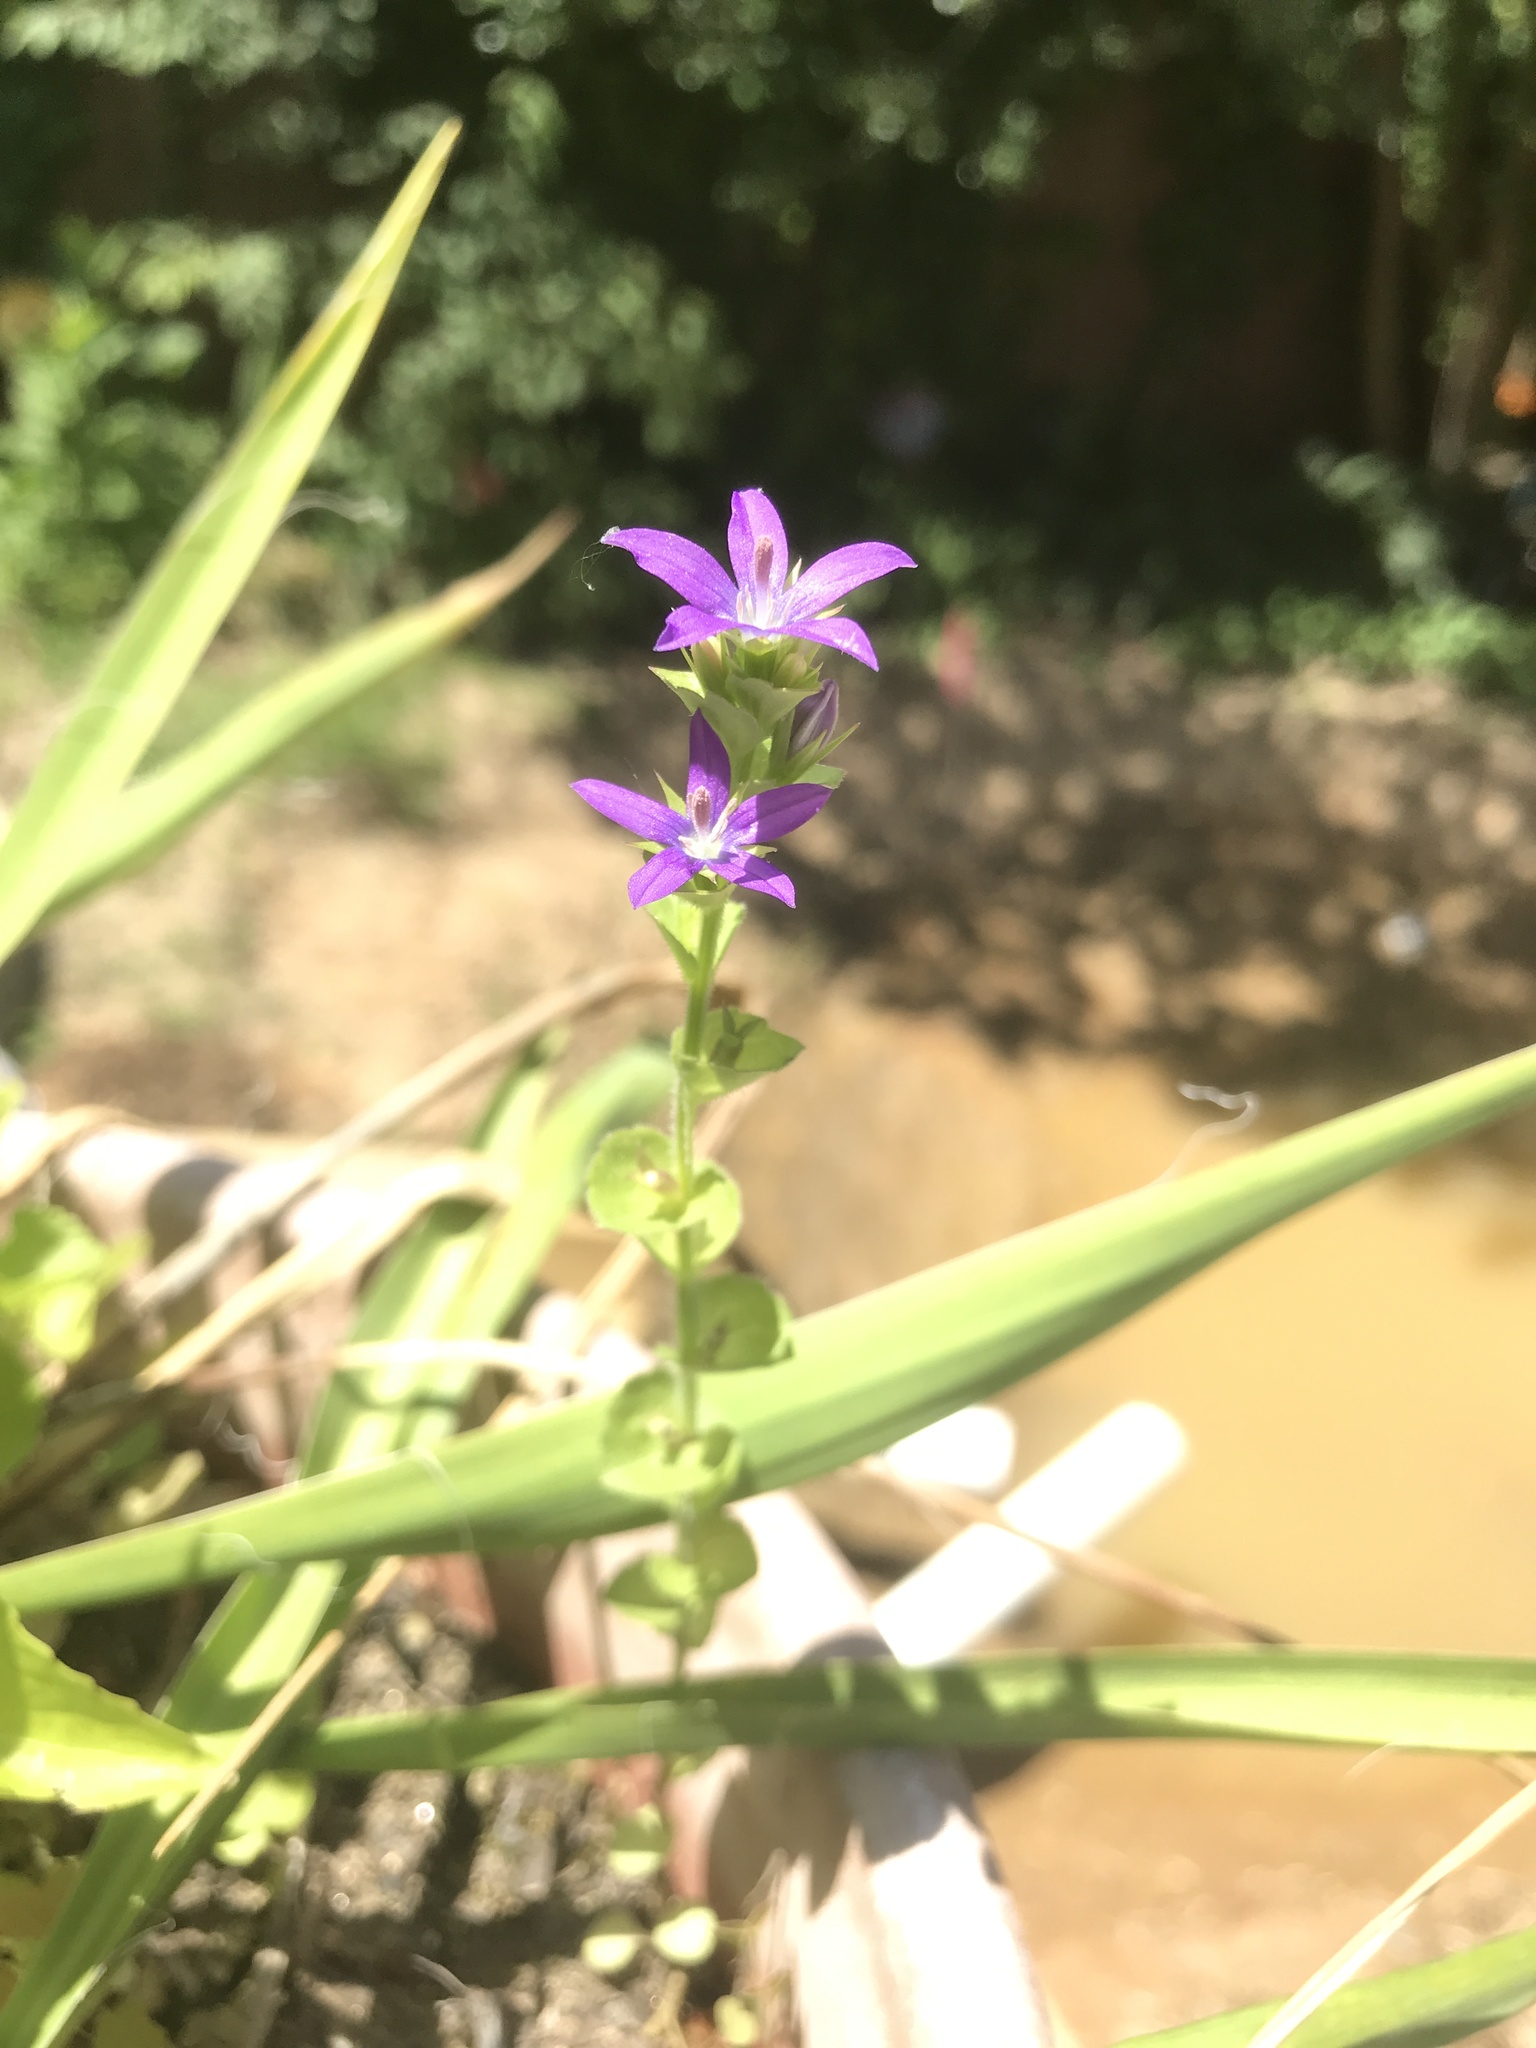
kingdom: Plantae
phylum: Tracheophyta
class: Magnoliopsida
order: Asterales
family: Campanulaceae
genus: Triodanis
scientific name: Triodanis biflora
